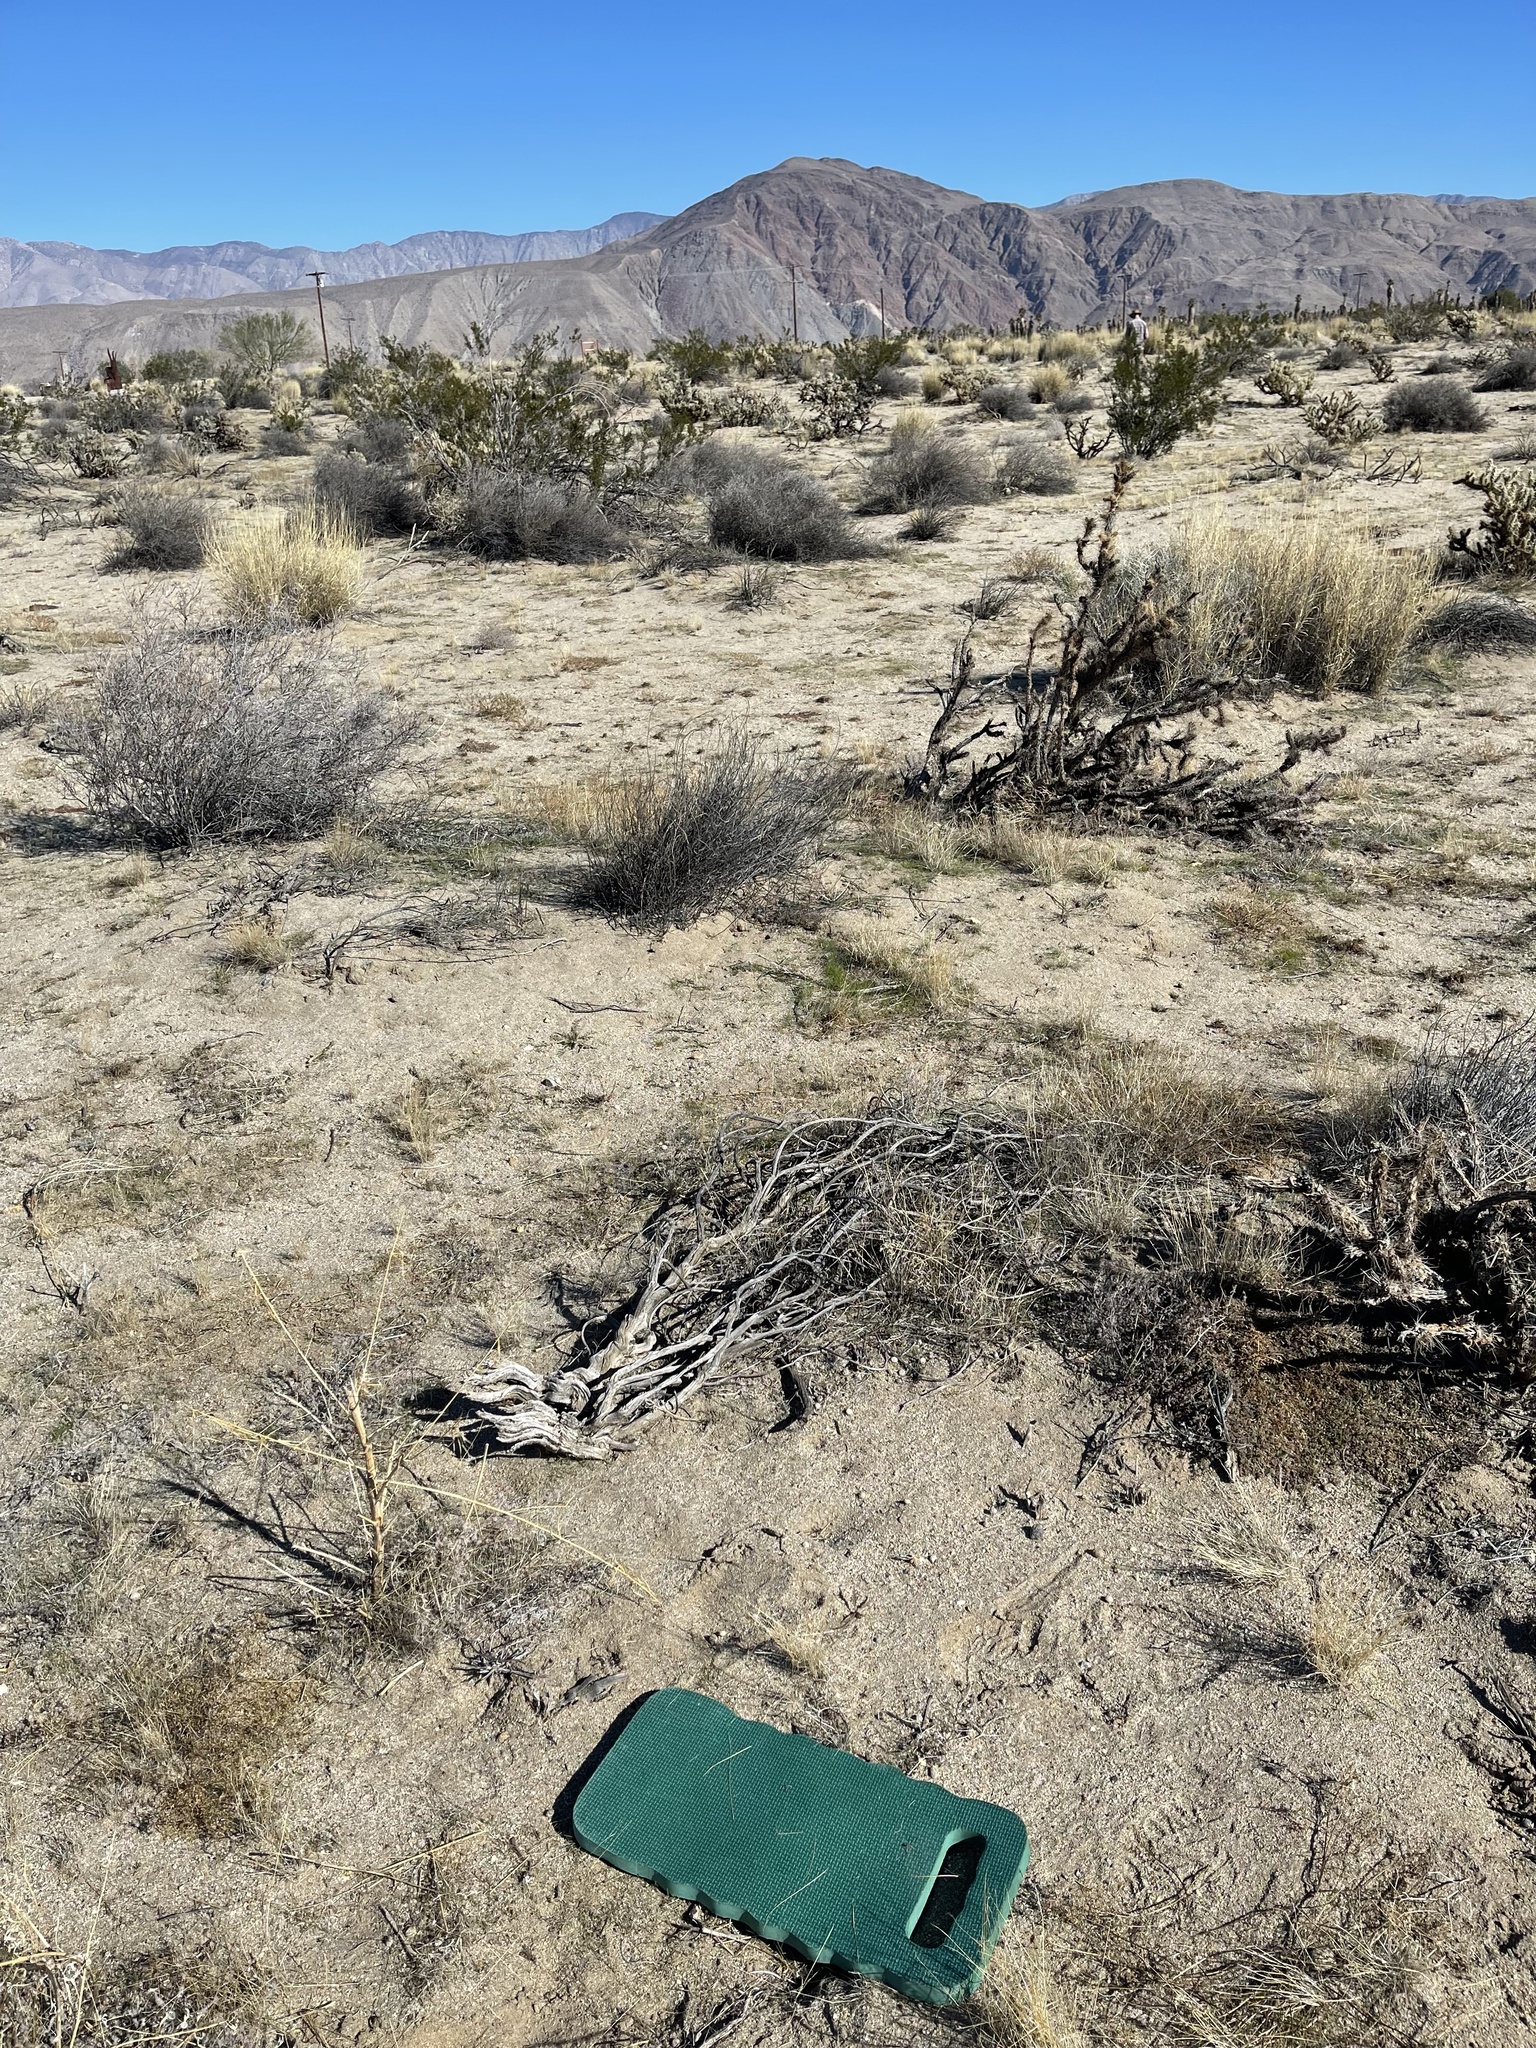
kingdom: Plantae
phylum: Tracheophyta
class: Magnoliopsida
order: Myrtales
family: Onagraceae
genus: Eulobus
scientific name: Eulobus californicus
